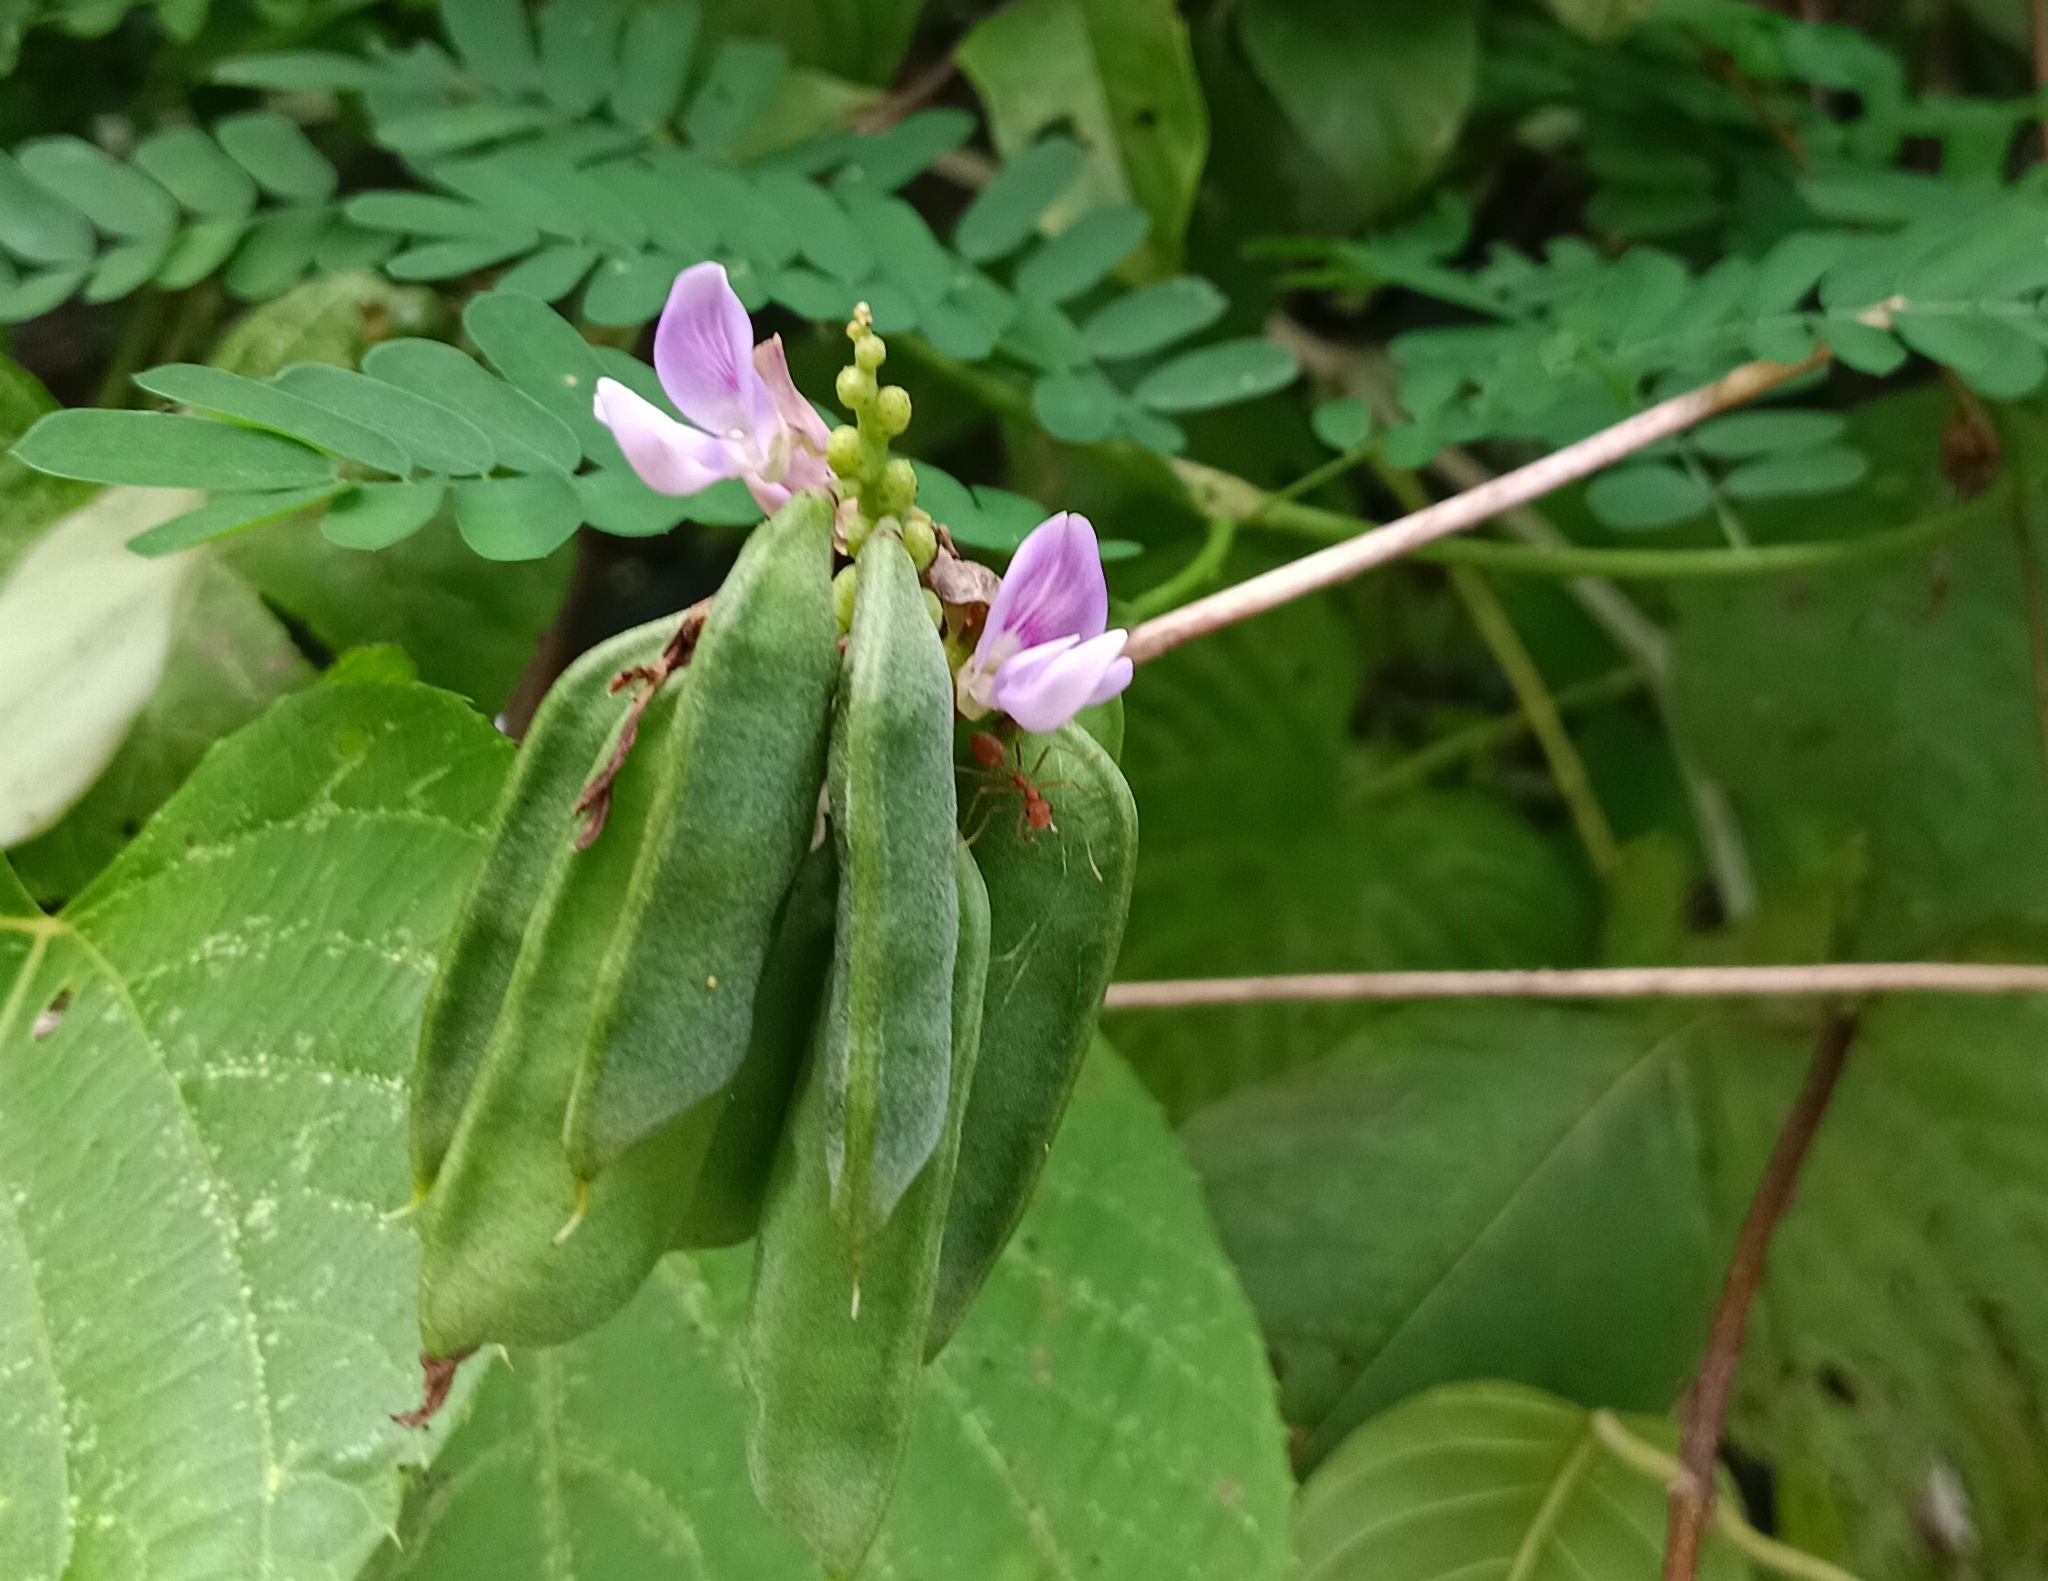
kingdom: Plantae
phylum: Tracheophyta
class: Magnoliopsida
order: Fabales
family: Fabaceae
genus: Abrus
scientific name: Abrus precatorius
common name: Rosarypea
